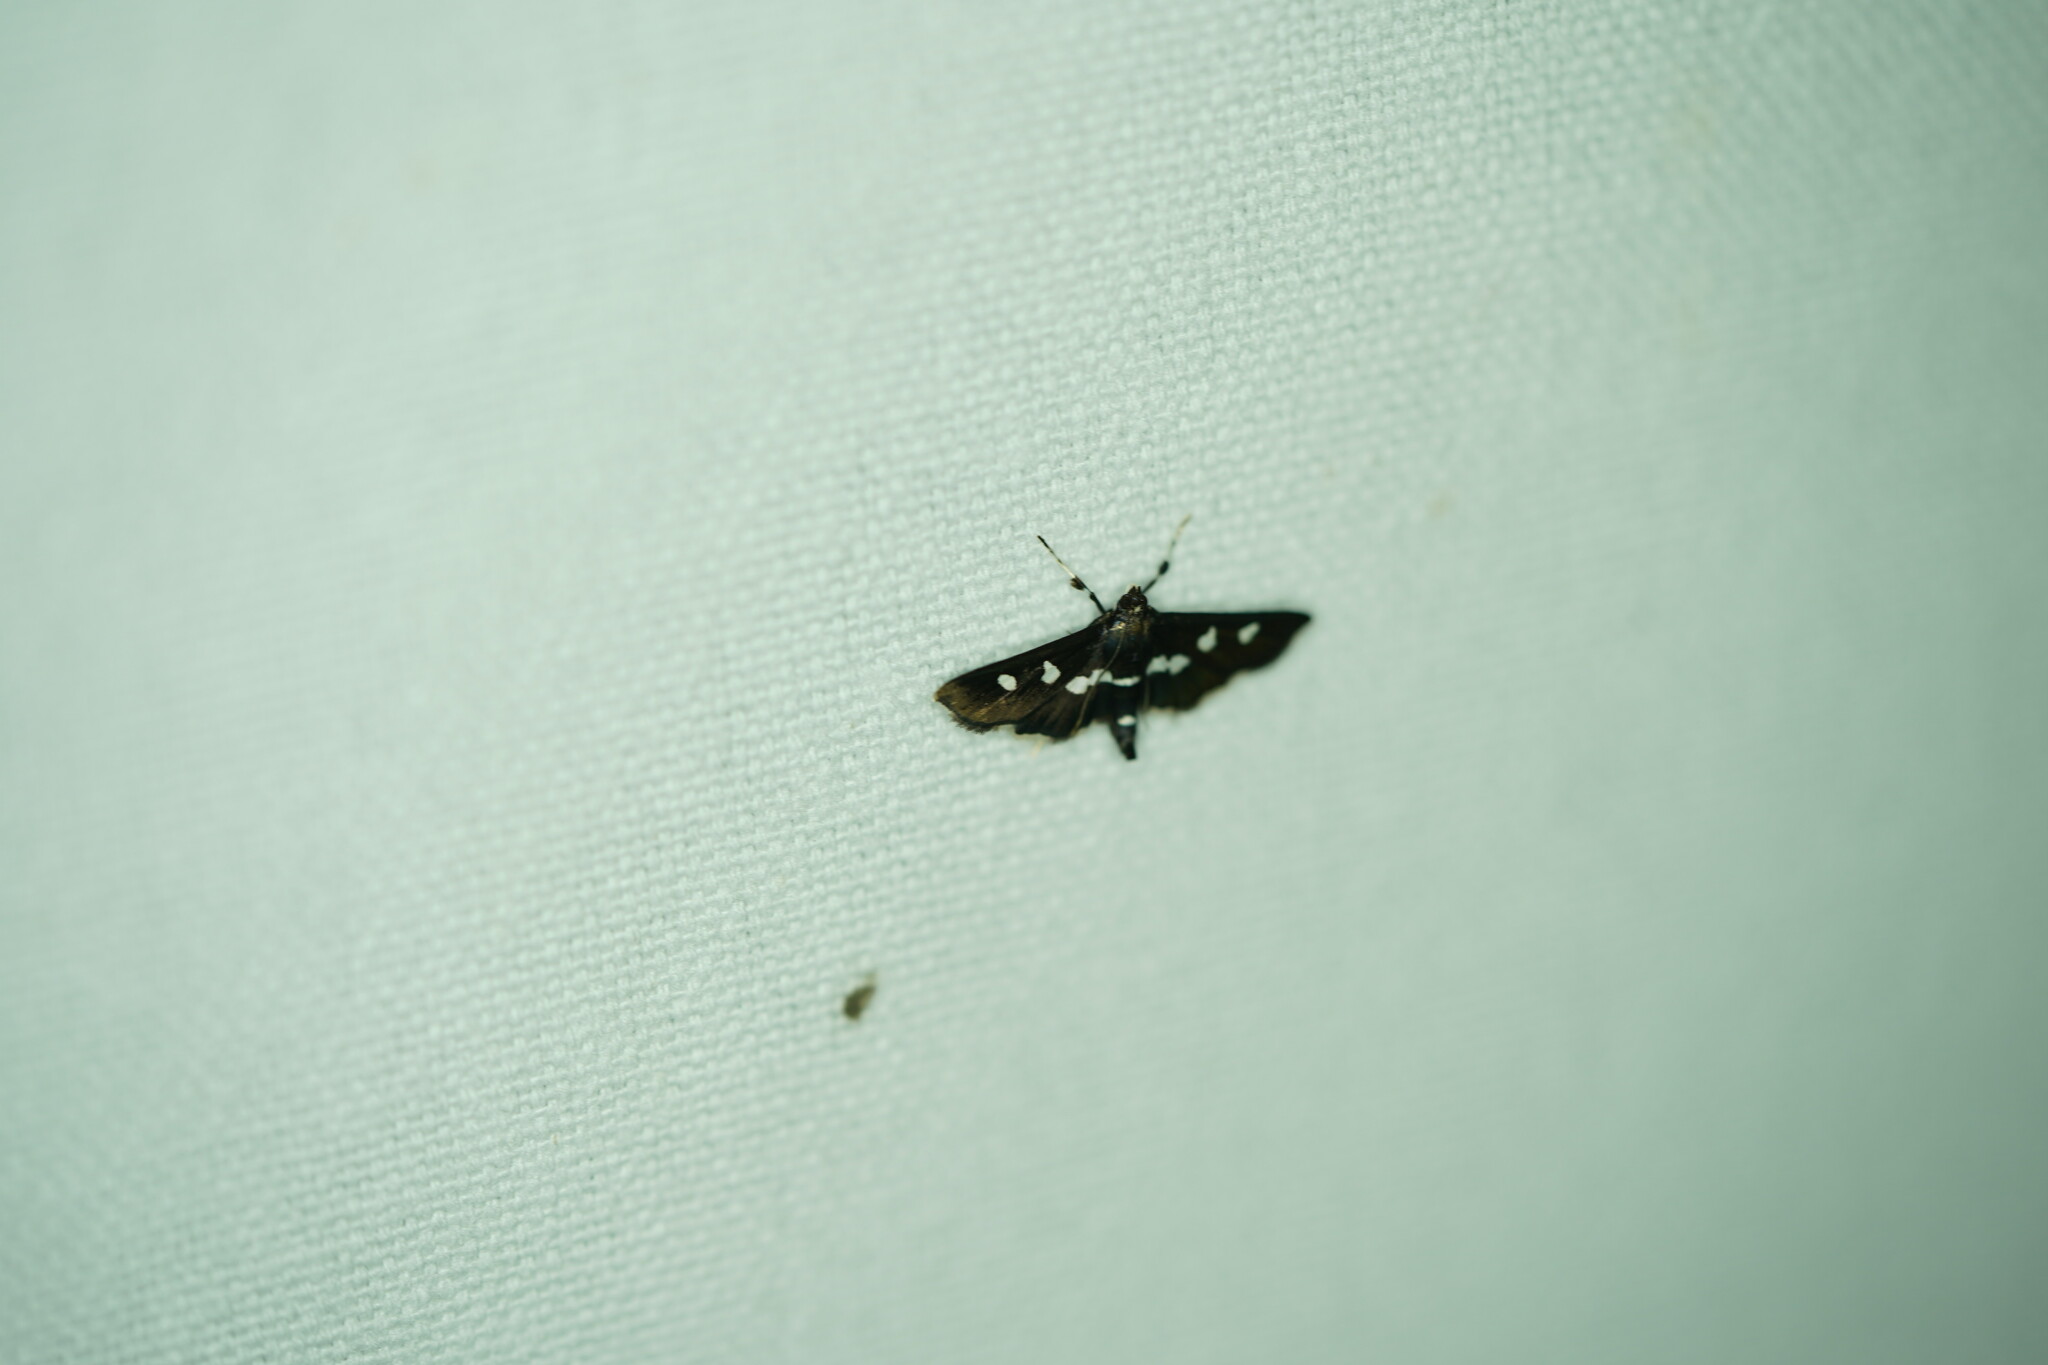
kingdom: Animalia
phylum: Arthropoda
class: Insecta
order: Lepidoptera
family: Crambidae
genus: Desmia
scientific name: Desmia
